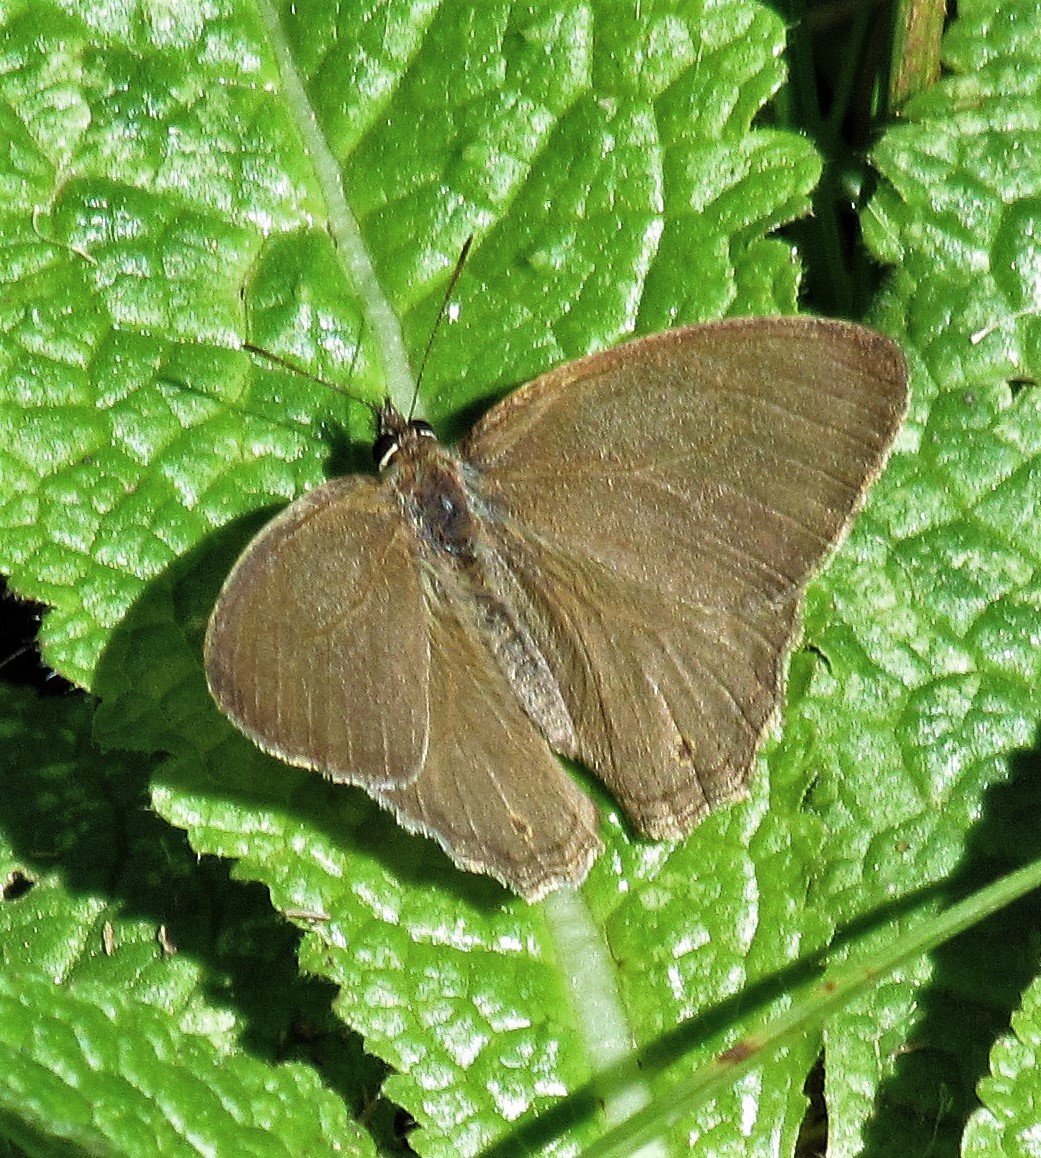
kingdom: Animalia
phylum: Arthropoda
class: Insecta
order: Lepidoptera
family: Nymphalidae
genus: Euptychia
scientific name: Euptychia
